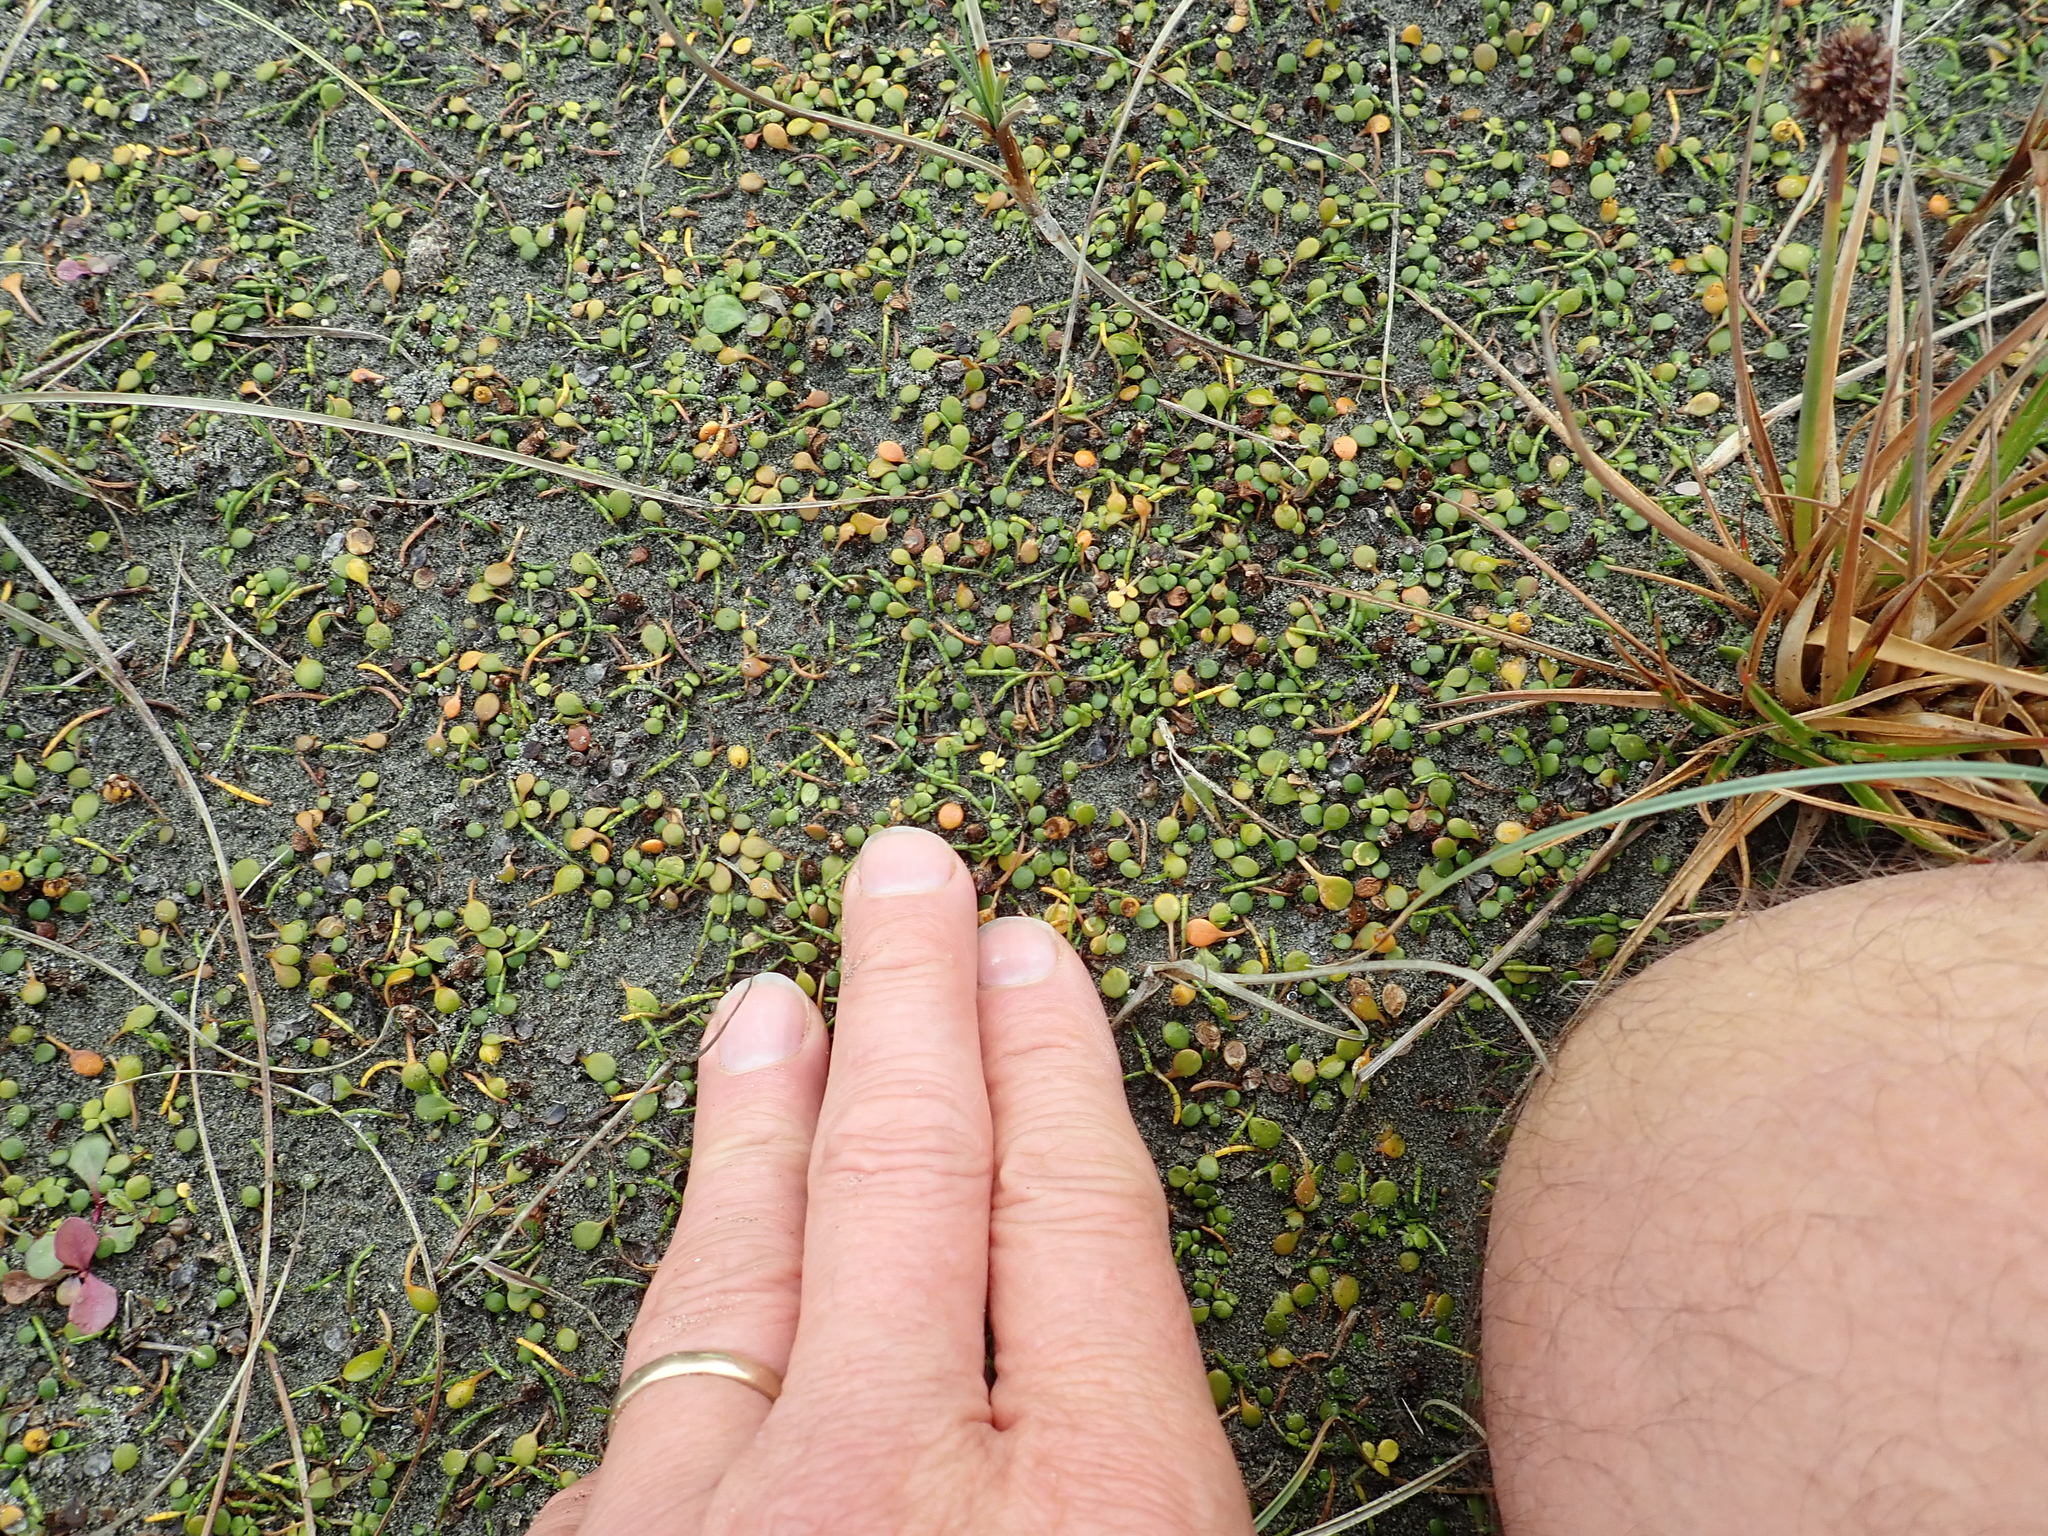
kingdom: Plantae
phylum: Tracheophyta
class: Magnoliopsida
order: Ranunculales
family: Ranunculaceae
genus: Ranunculus
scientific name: Ranunculus acaulis
